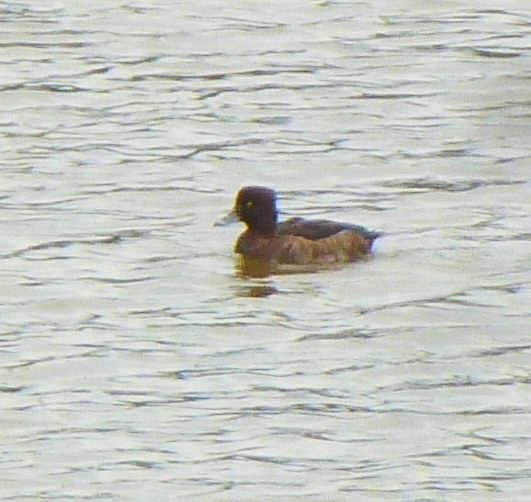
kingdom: Animalia
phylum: Chordata
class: Aves
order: Anseriformes
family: Anatidae
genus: Aythya
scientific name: Aythya fuligula
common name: Tufted duck
